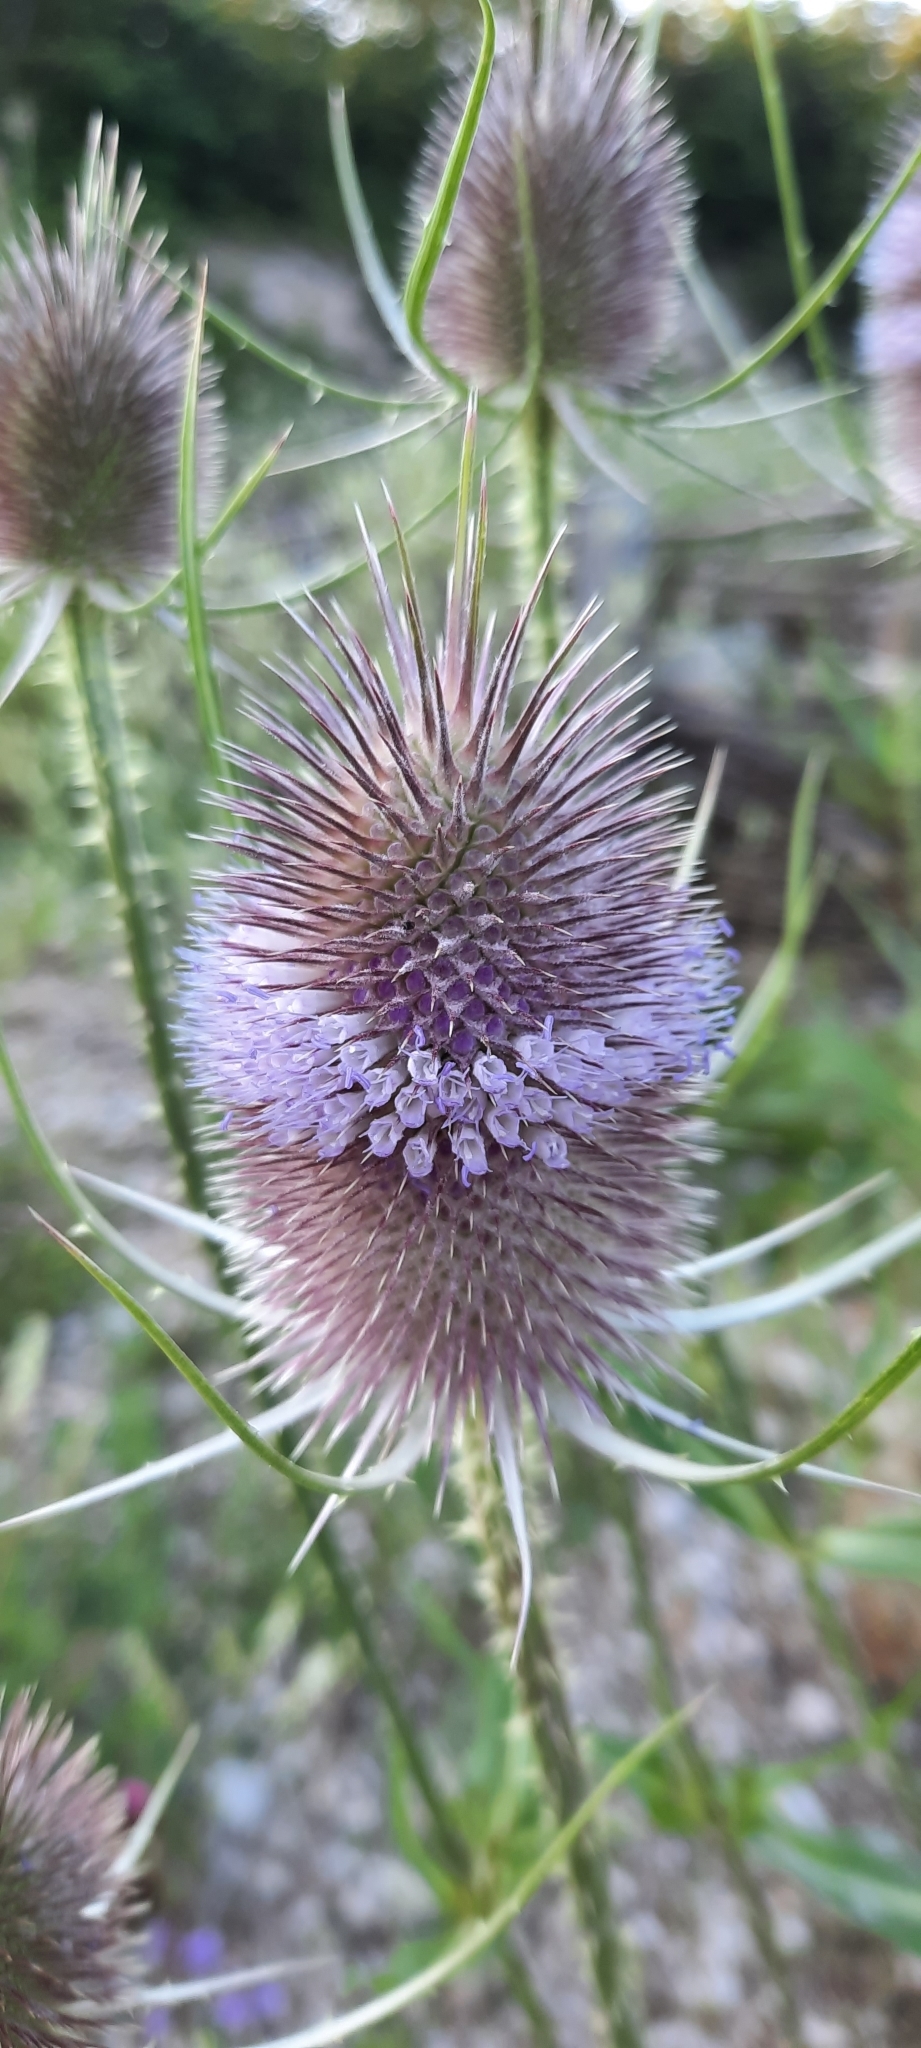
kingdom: Plantae
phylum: Tracheophyta
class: Magnoliopsida
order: Dipsacales
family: Caprifoliaceae
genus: Dipsacus
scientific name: Dipsacus fullonum
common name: Teasel
